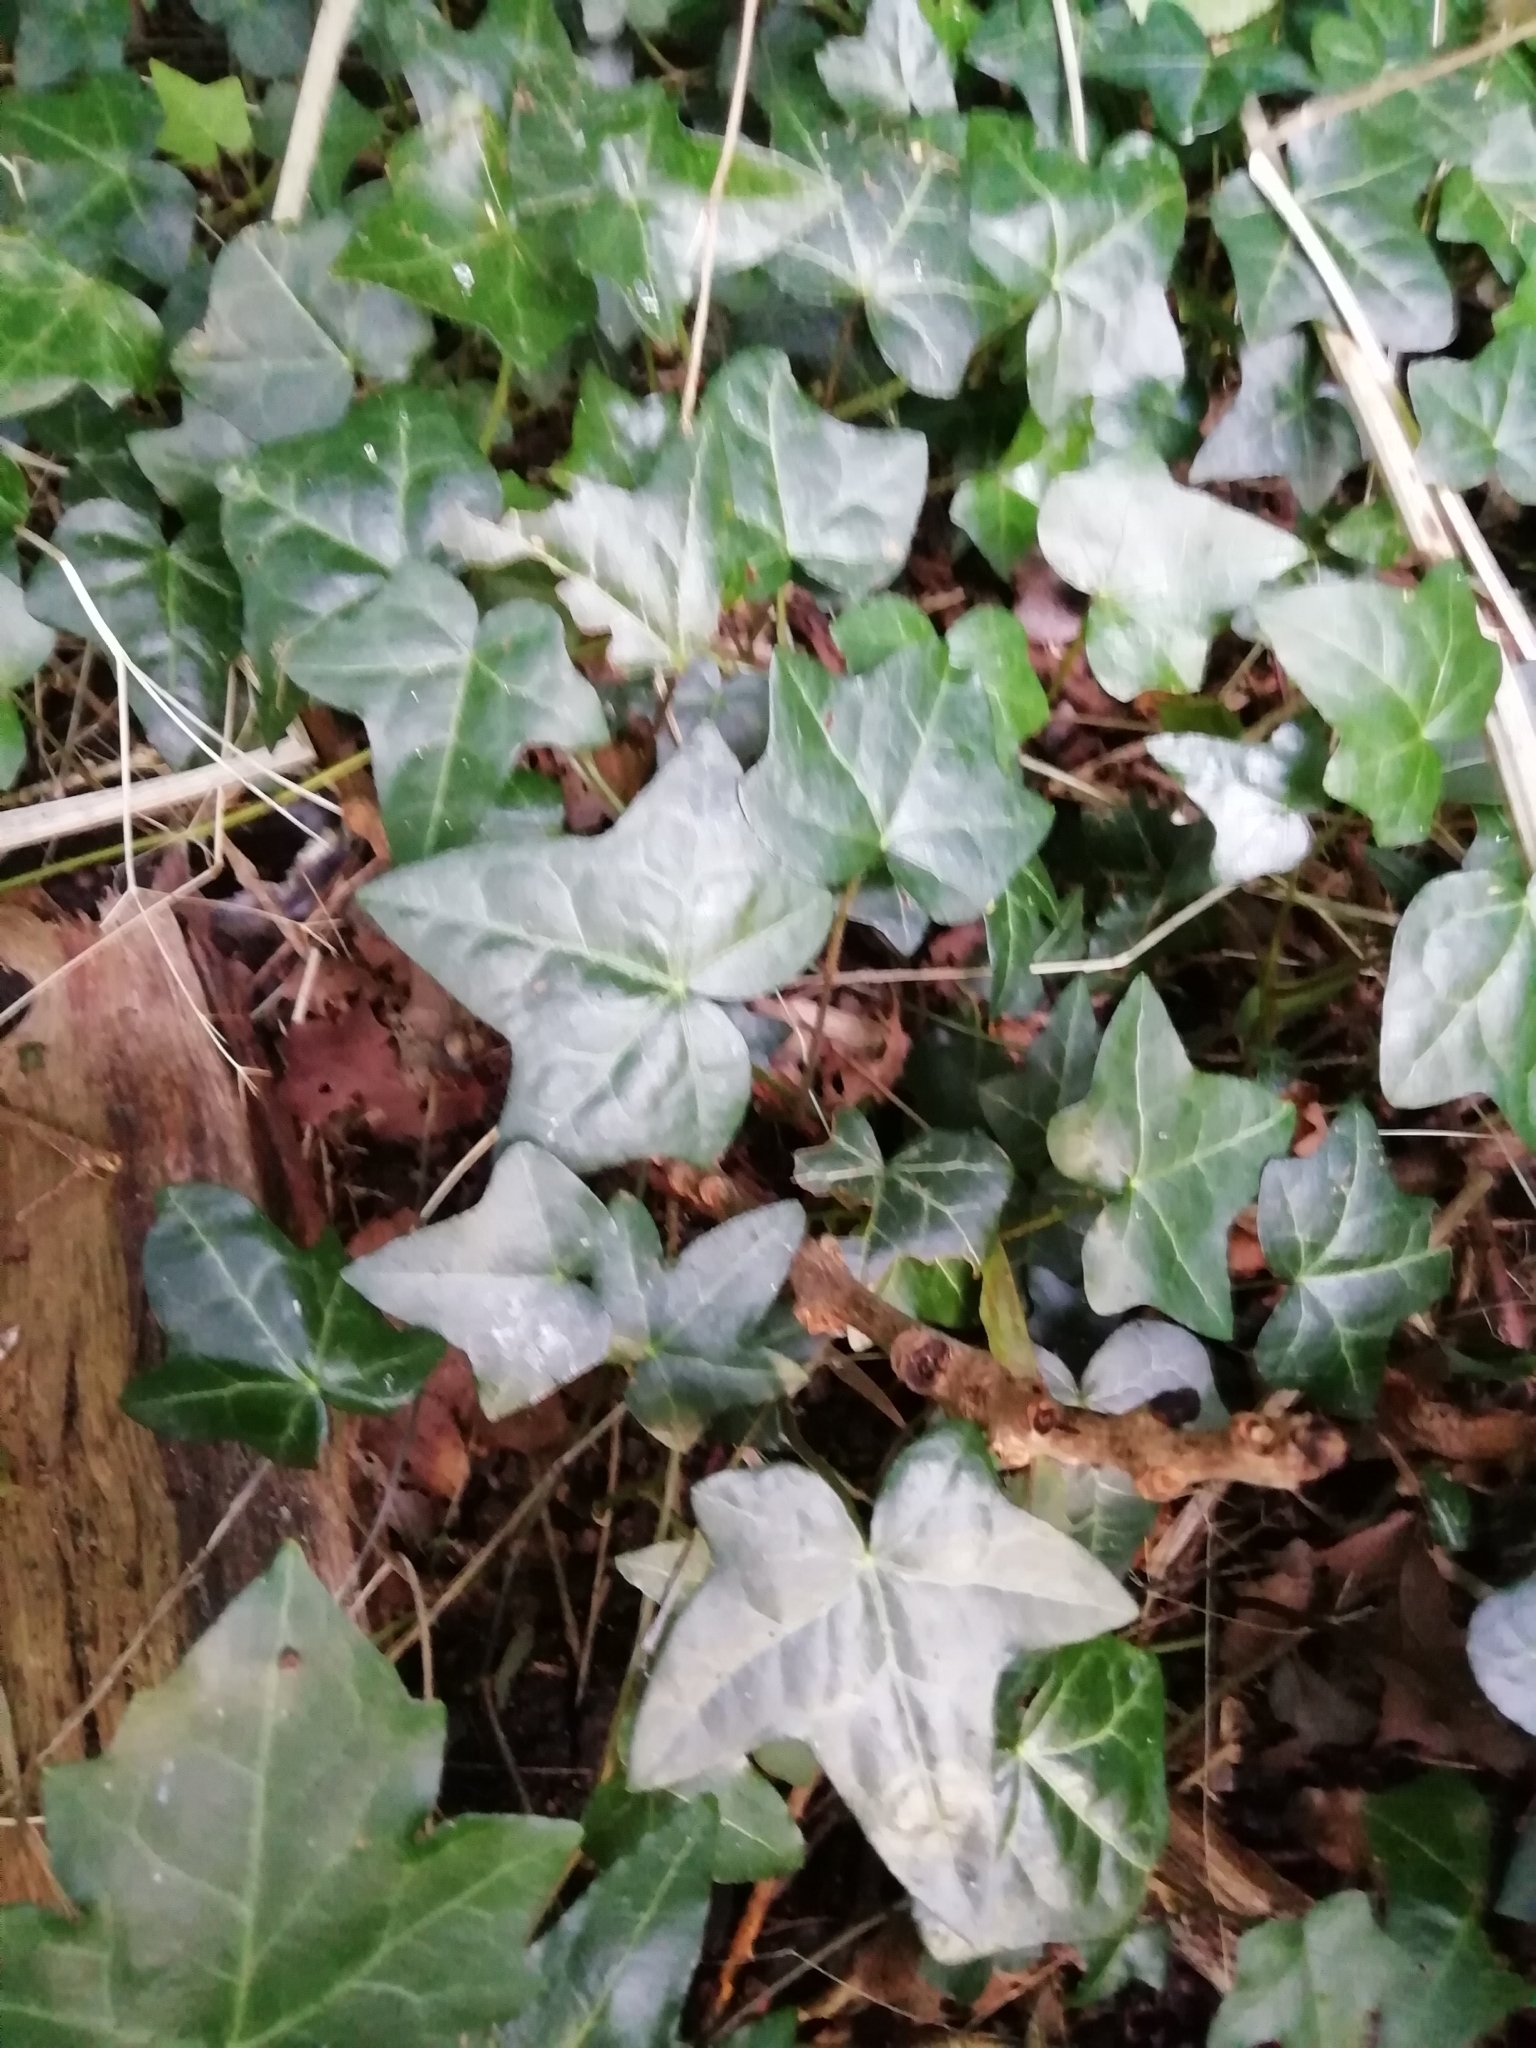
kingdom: Plantae
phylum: Tracheophyta
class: Magnoliopsida
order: Apiales
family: Araliaceae
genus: Hedera
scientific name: Hedera helix
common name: Ivy
